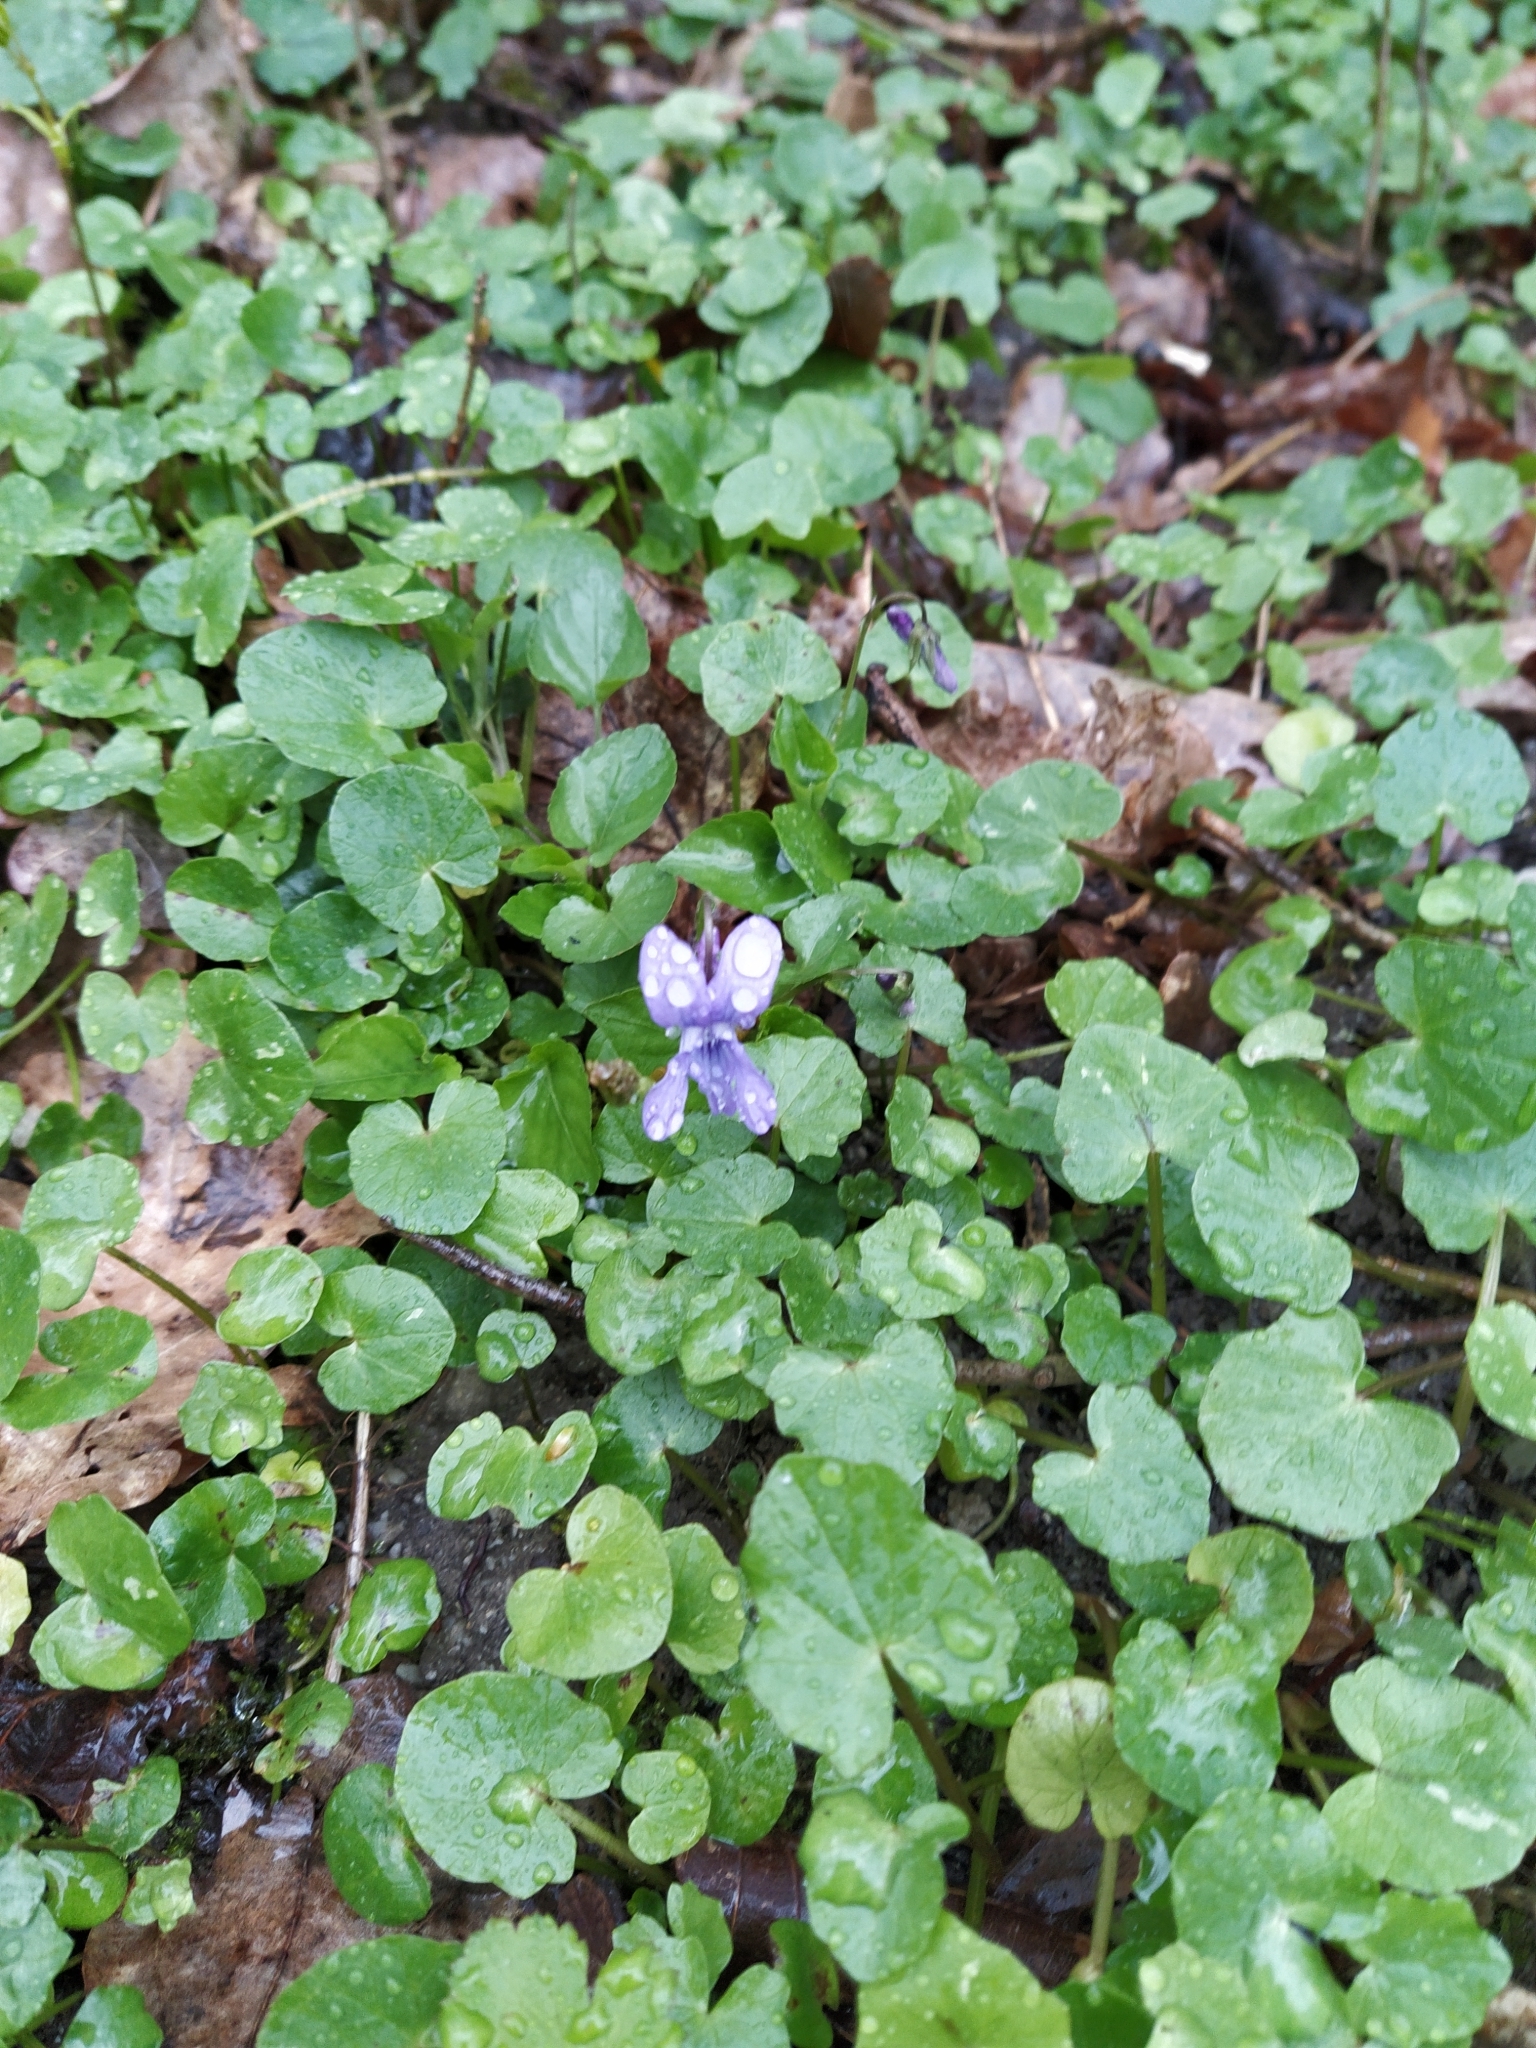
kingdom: Plantae
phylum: Tracheophyta
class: Magnoliopsida
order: Malpighiales
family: Violaceae
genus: Viola
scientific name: Viola reichenbachiana
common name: Early dog-violet
